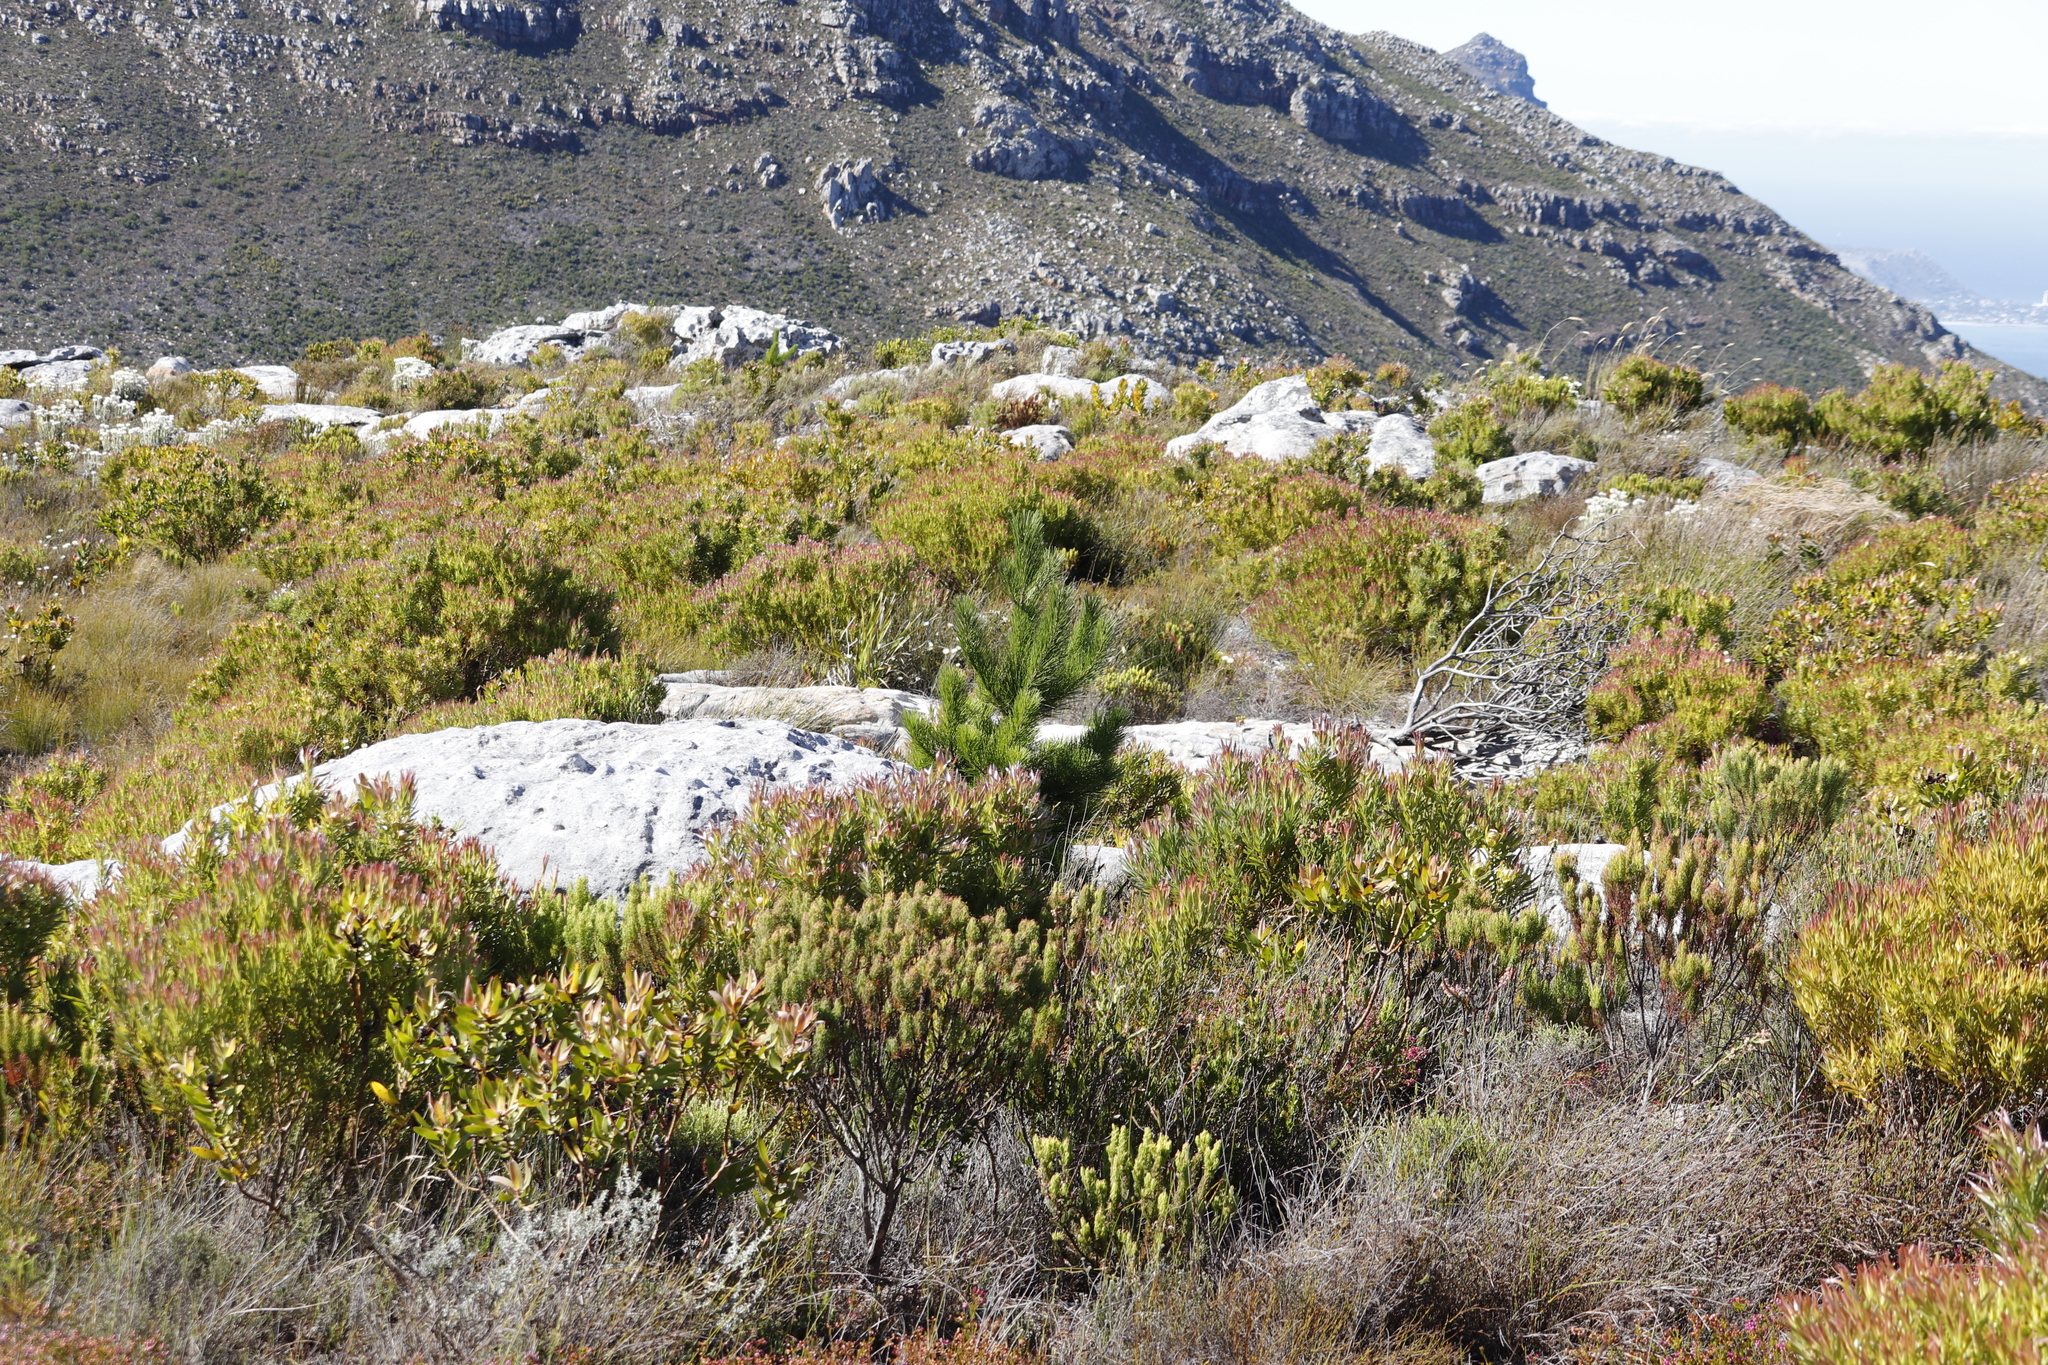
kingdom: Plantae
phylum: Tracheophyta
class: Pinopsida
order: Pinales
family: Pinaceae
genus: Pinus
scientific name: Pinus radiata
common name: Monterey pine
